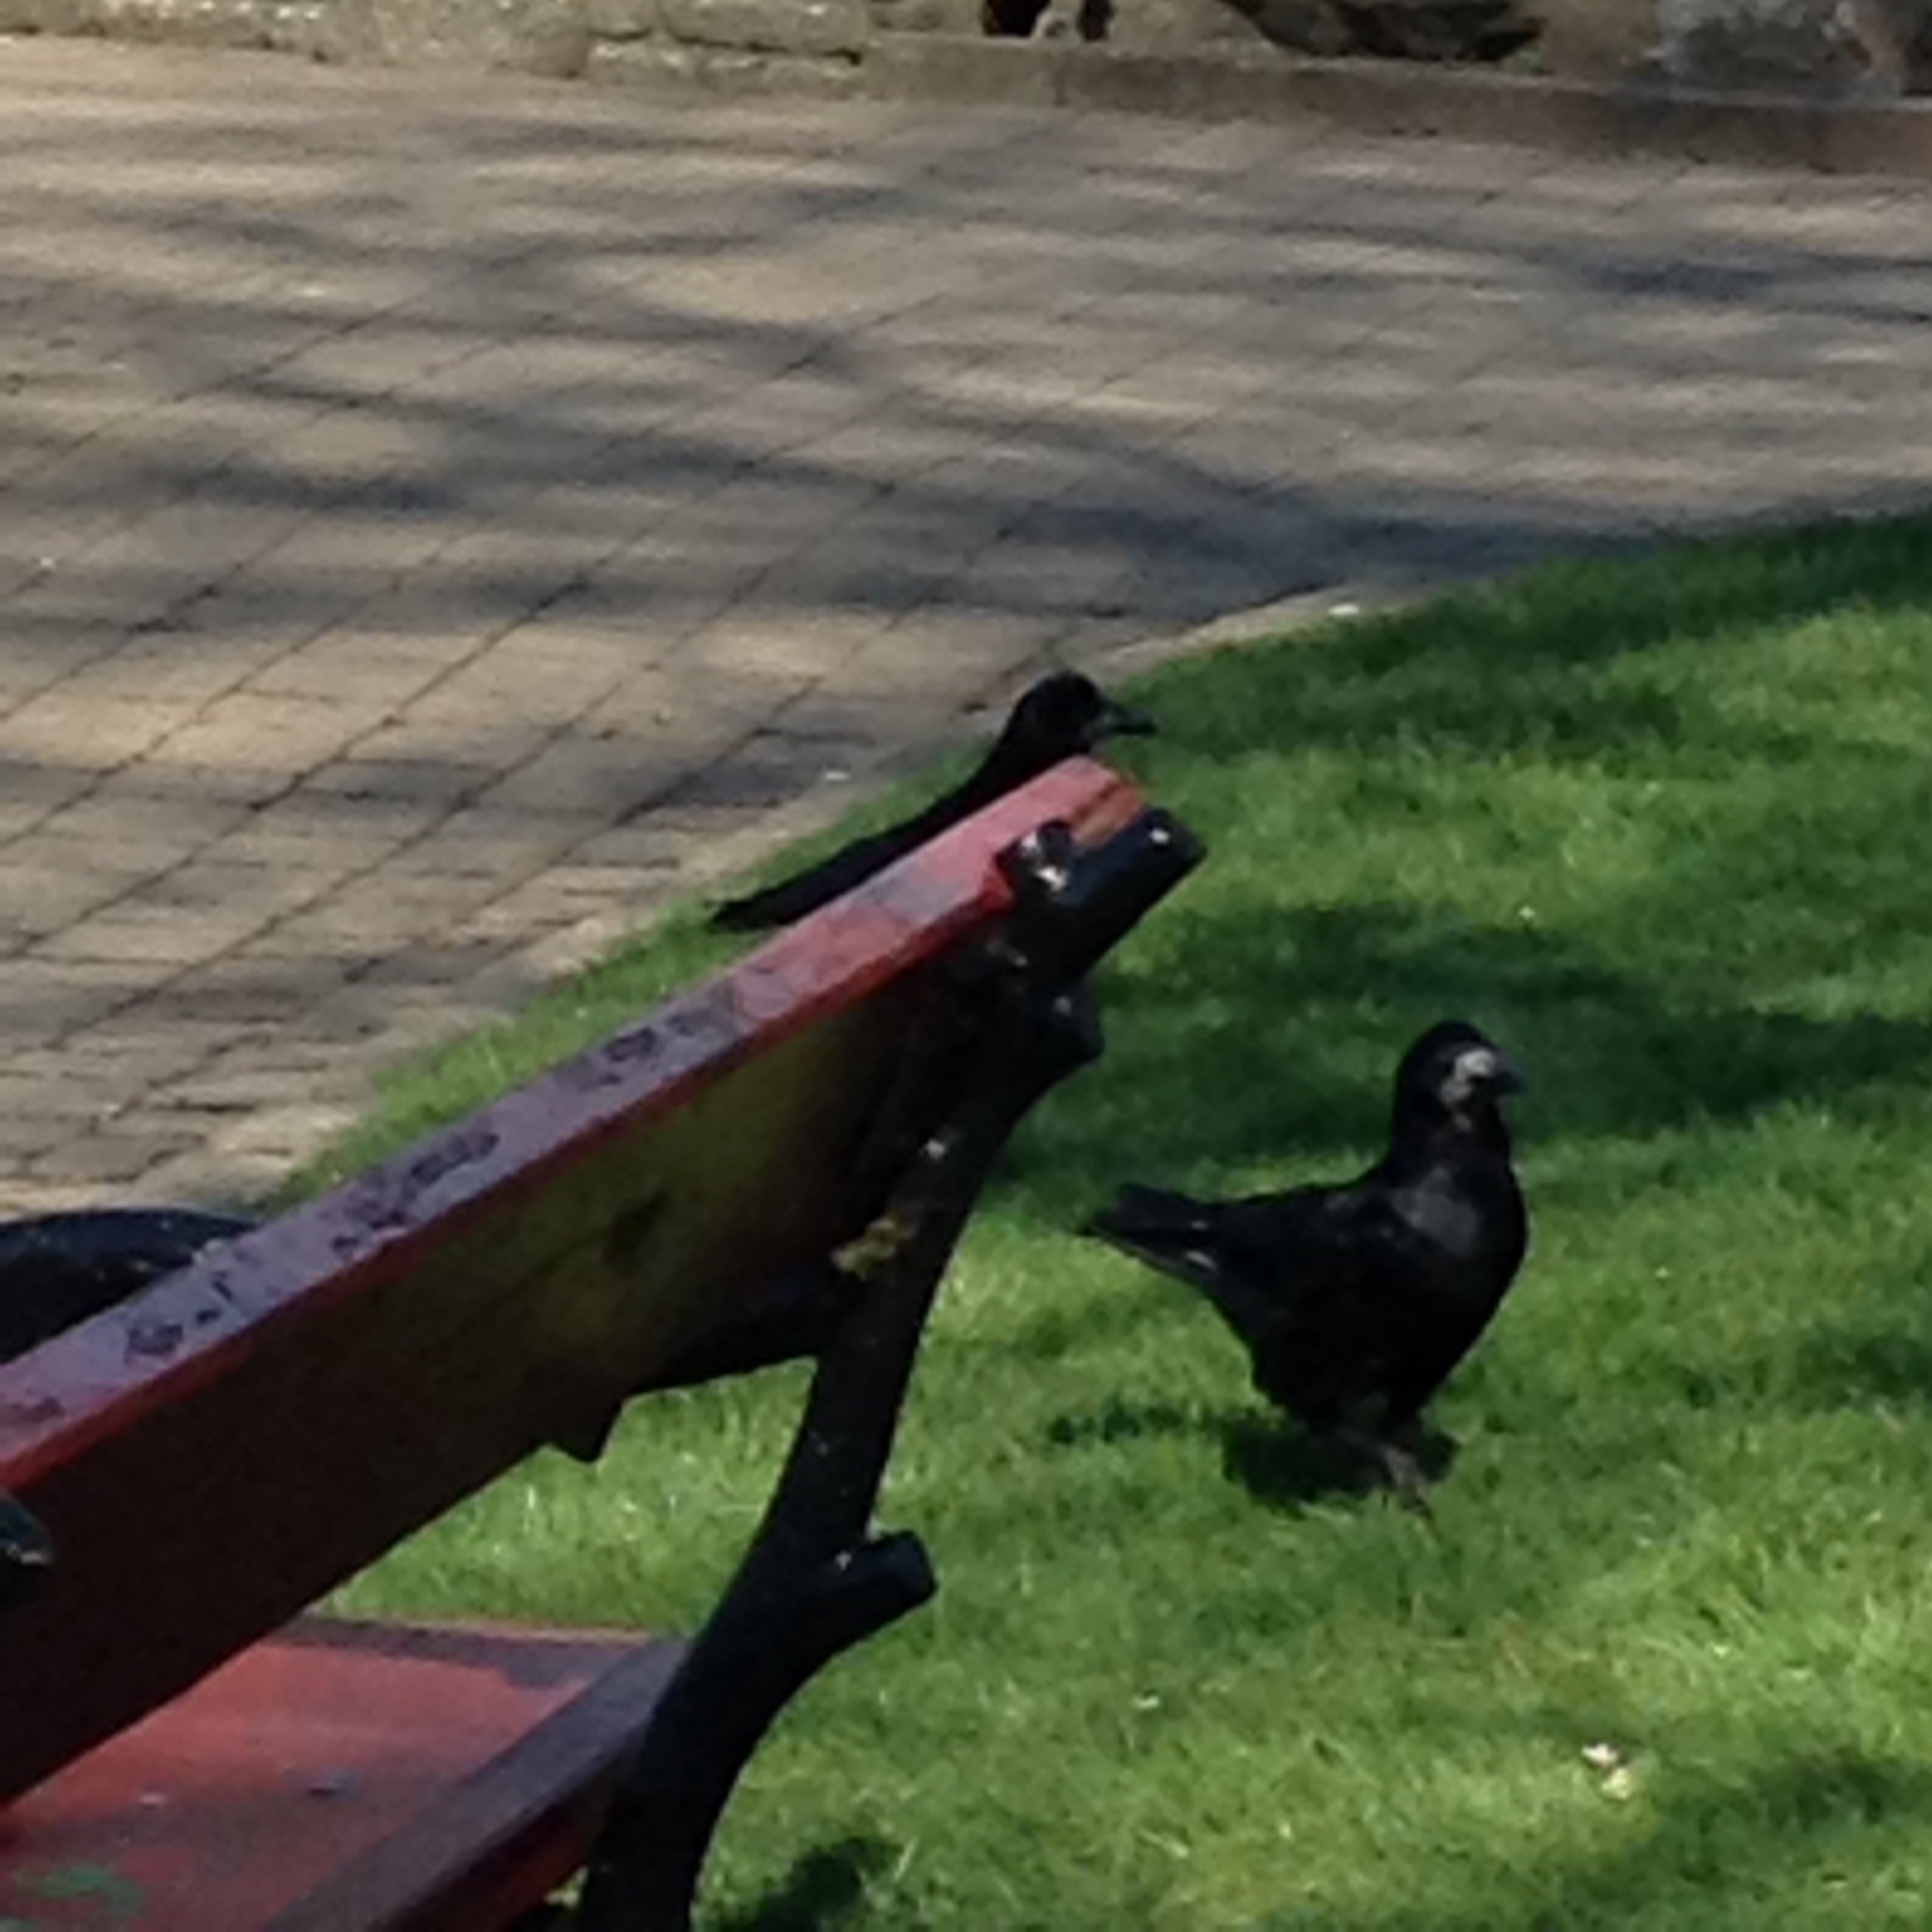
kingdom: Animalia
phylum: Chordata
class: Aves
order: Passeriformes
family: Corvidae
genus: Corvus
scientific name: Corvus frugilegus
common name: Rook
